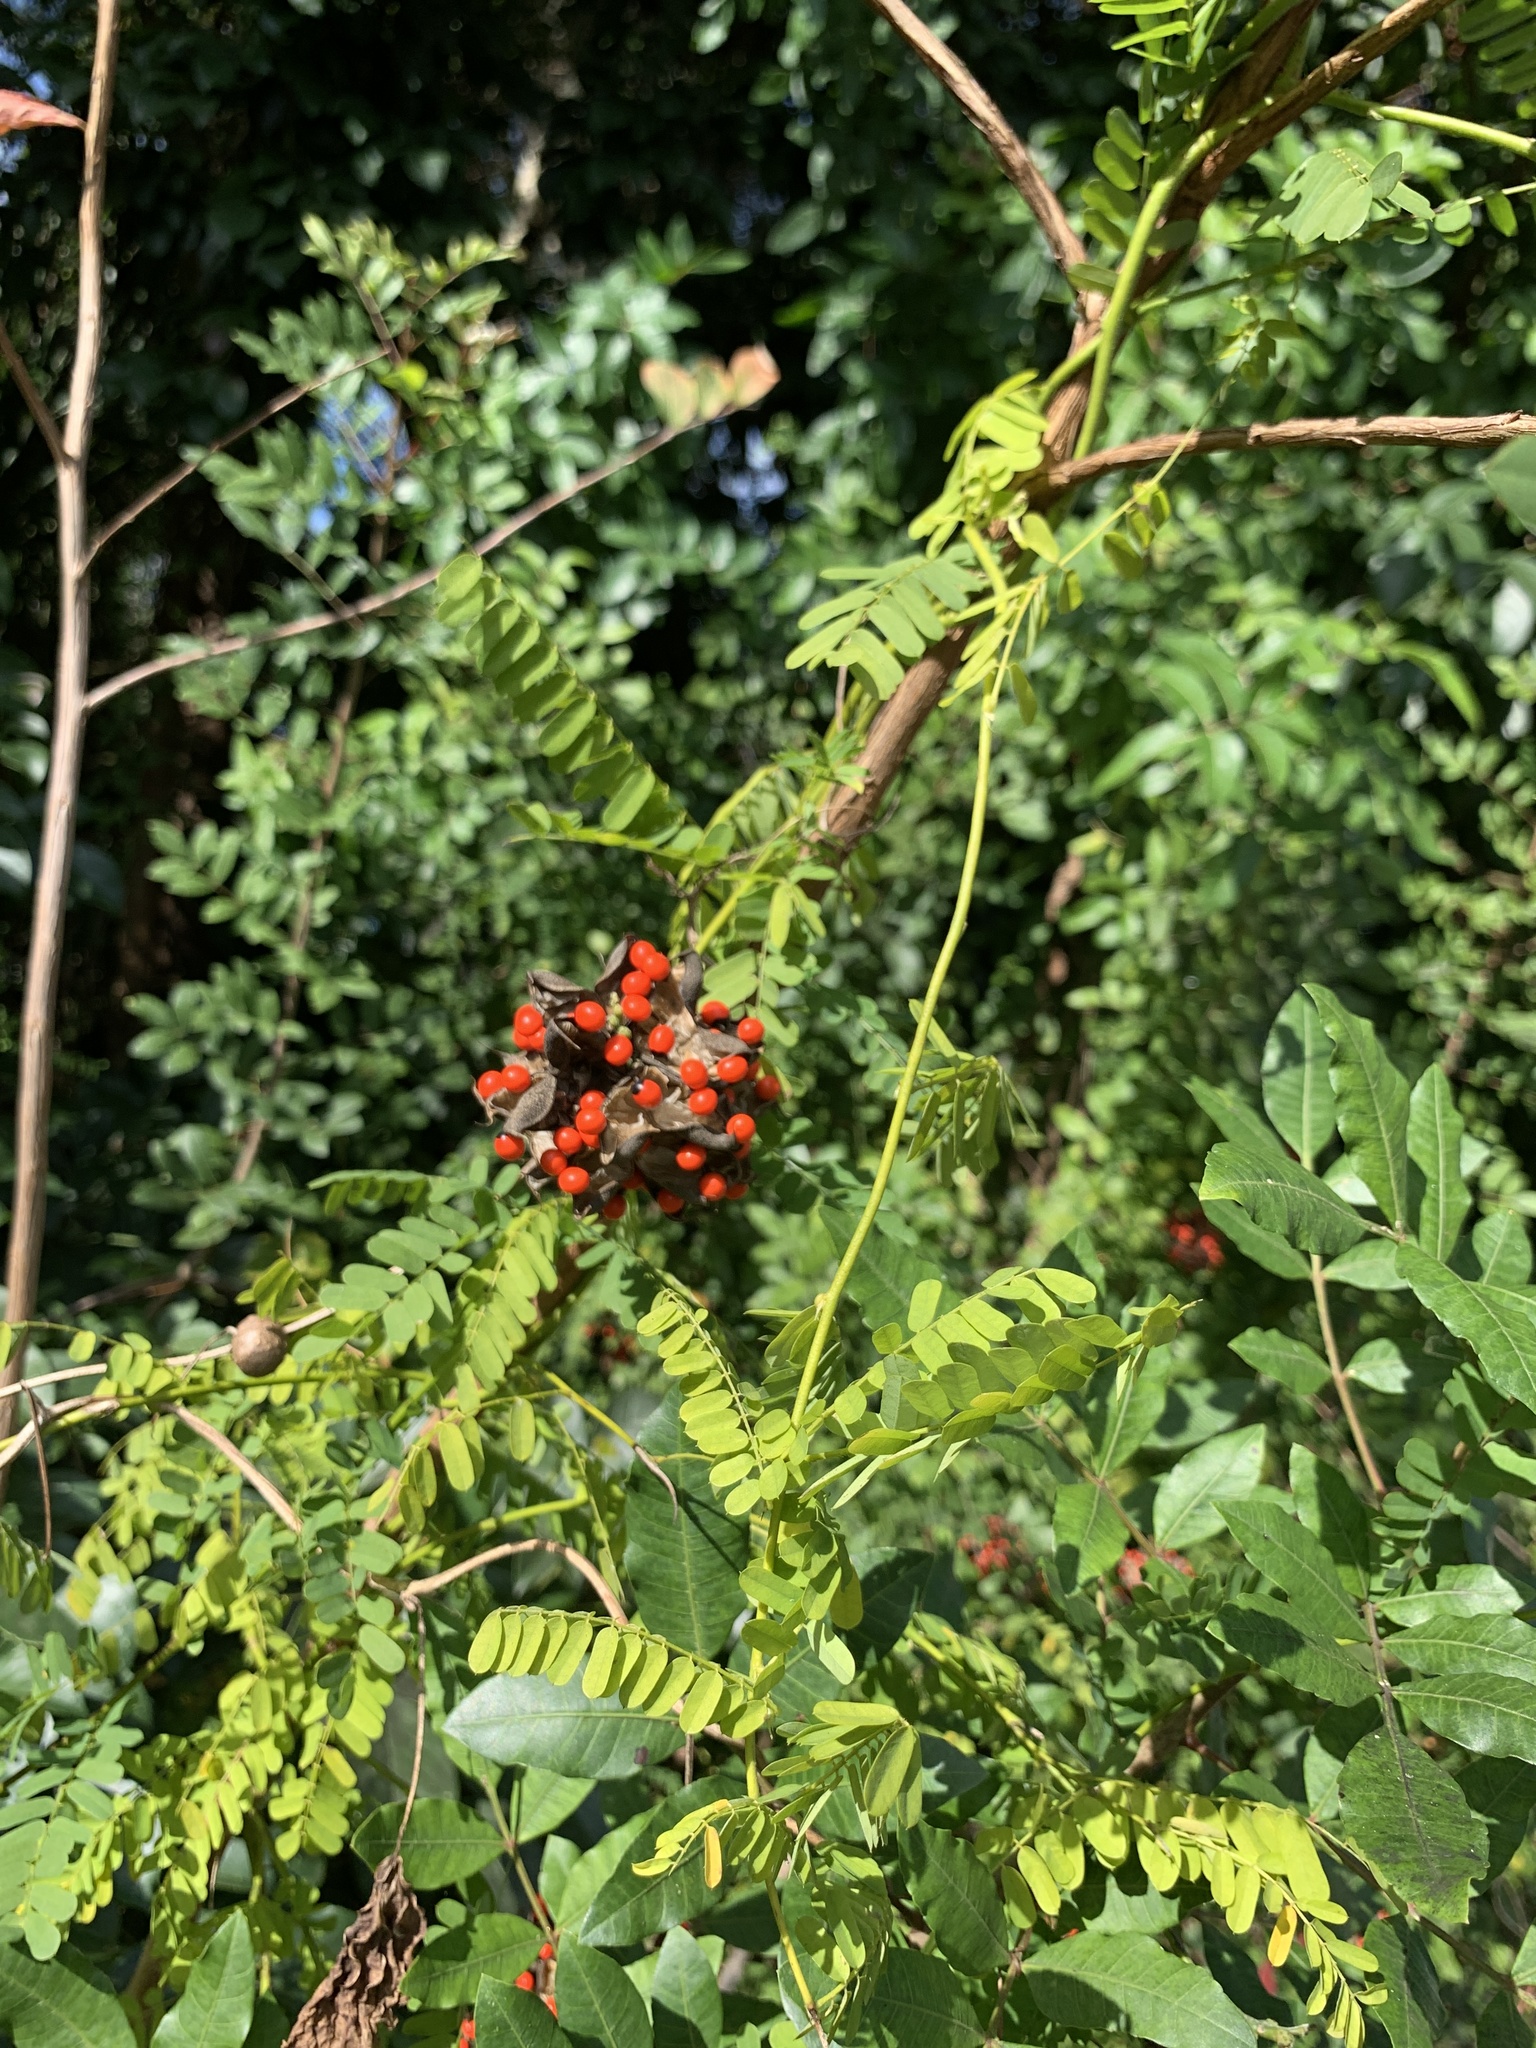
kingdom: Plantae
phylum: Tracheophyta
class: Magnoliopsida
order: Fabales
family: Fabaceae
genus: Abrus
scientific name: Abrus precatorius
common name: Rosarypea
